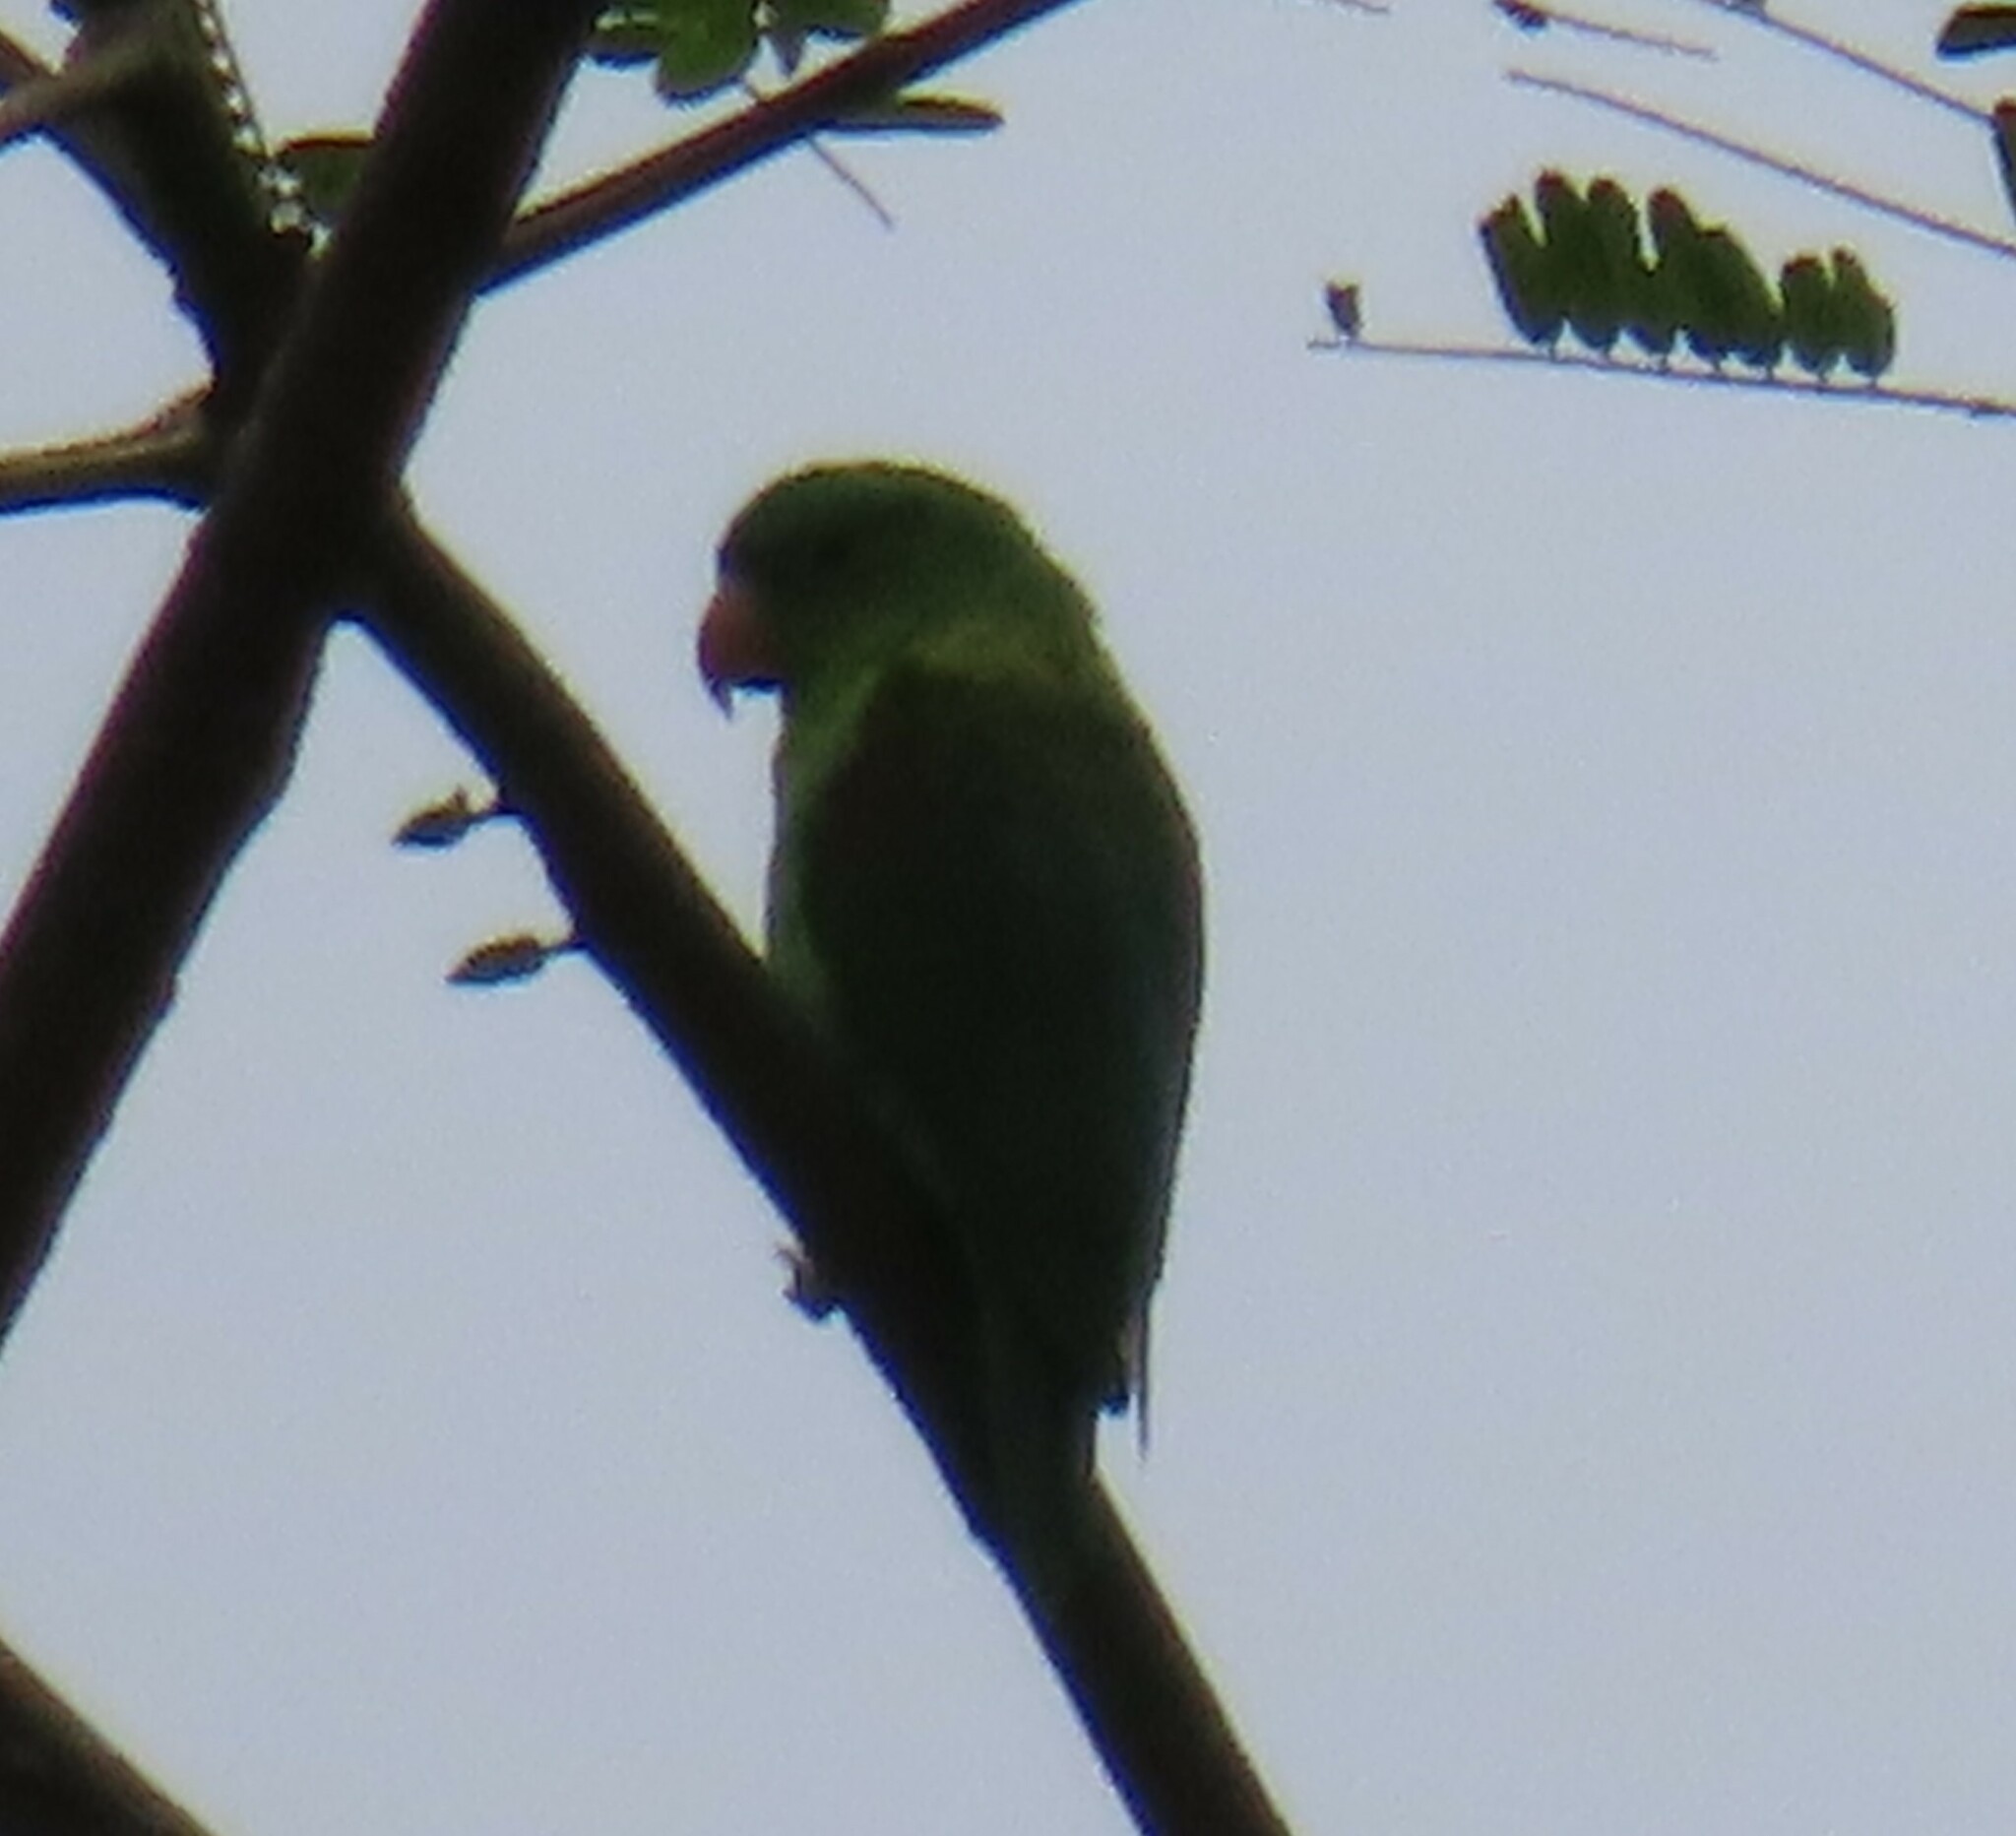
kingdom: Animalia
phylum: Chordata
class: Aves
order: Psittaciformes
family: Psittacidae
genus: Brotogeris
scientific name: Brotogeris jugularis
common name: Orange-chinned parakeet
